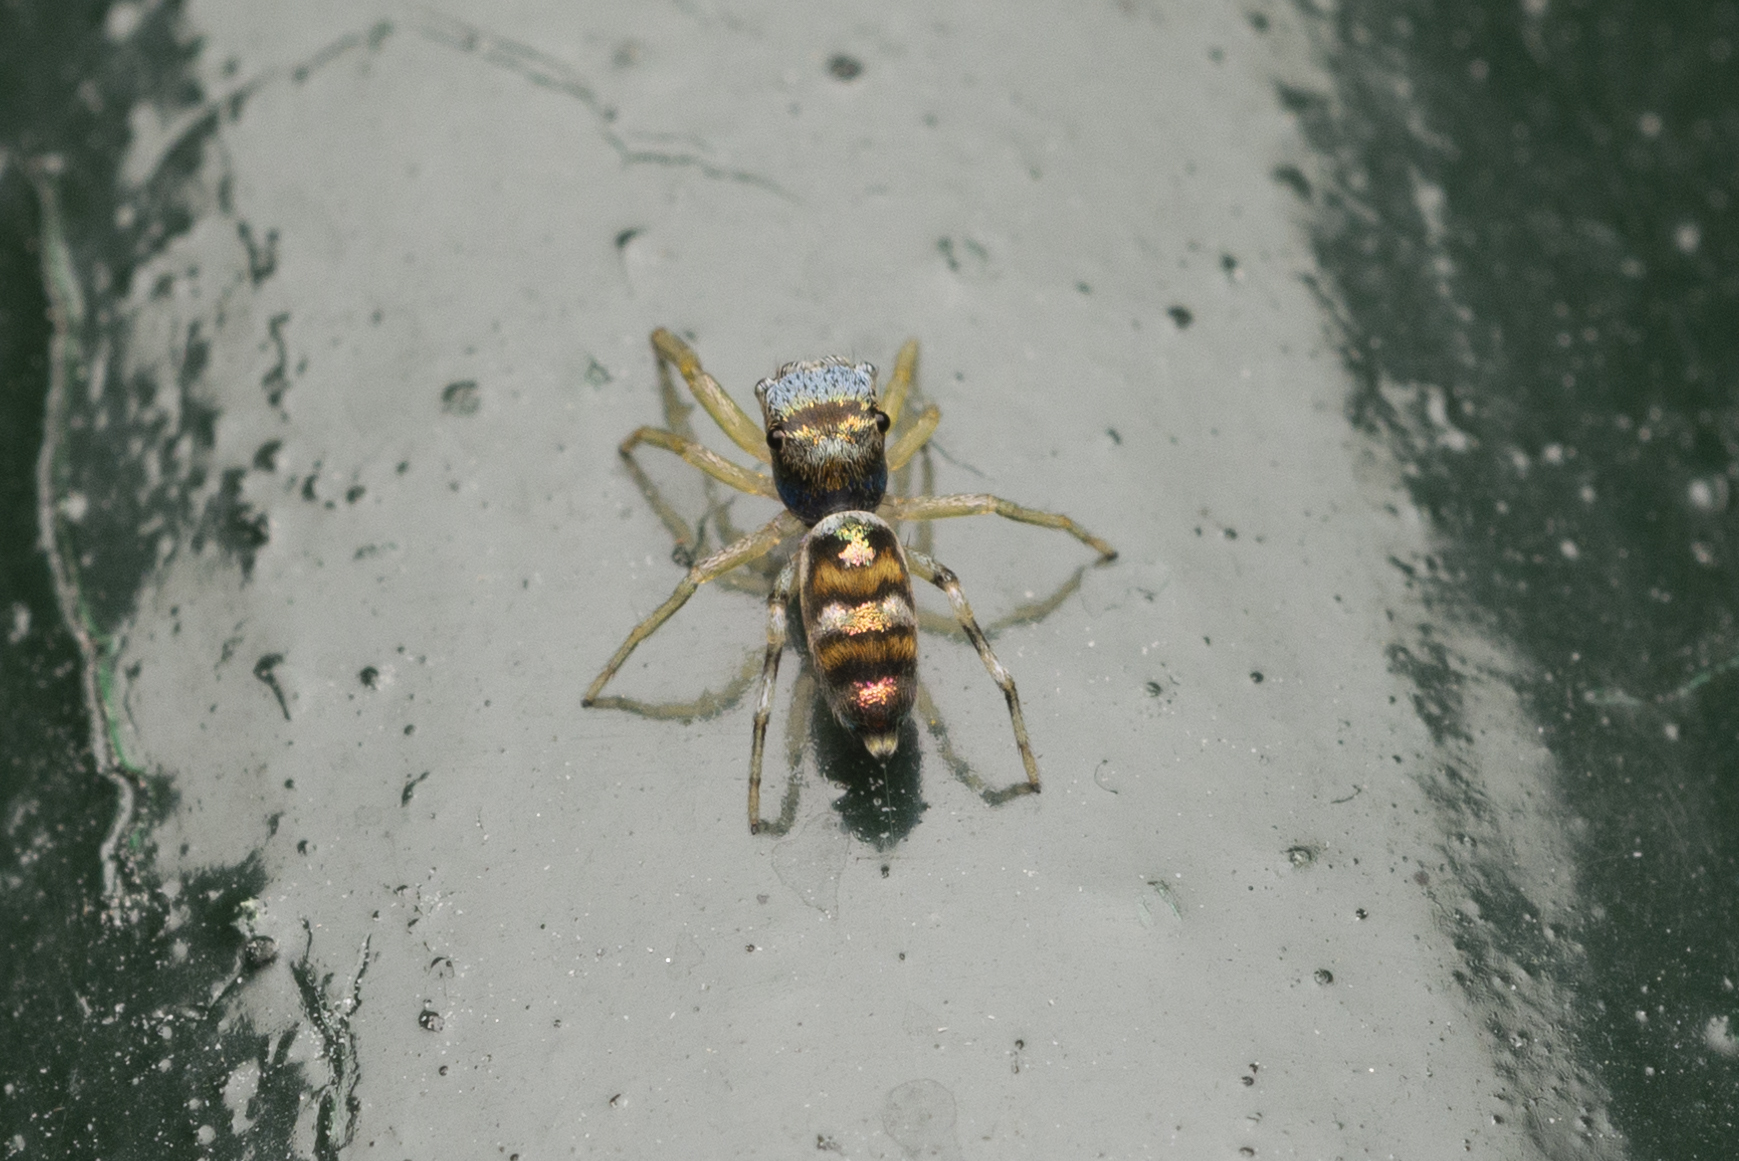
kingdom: Animalia
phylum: Arthropoda
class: Arachnida
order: Araneae
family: Salticidae
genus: Chrysilla
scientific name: Chrysilla acerosa
